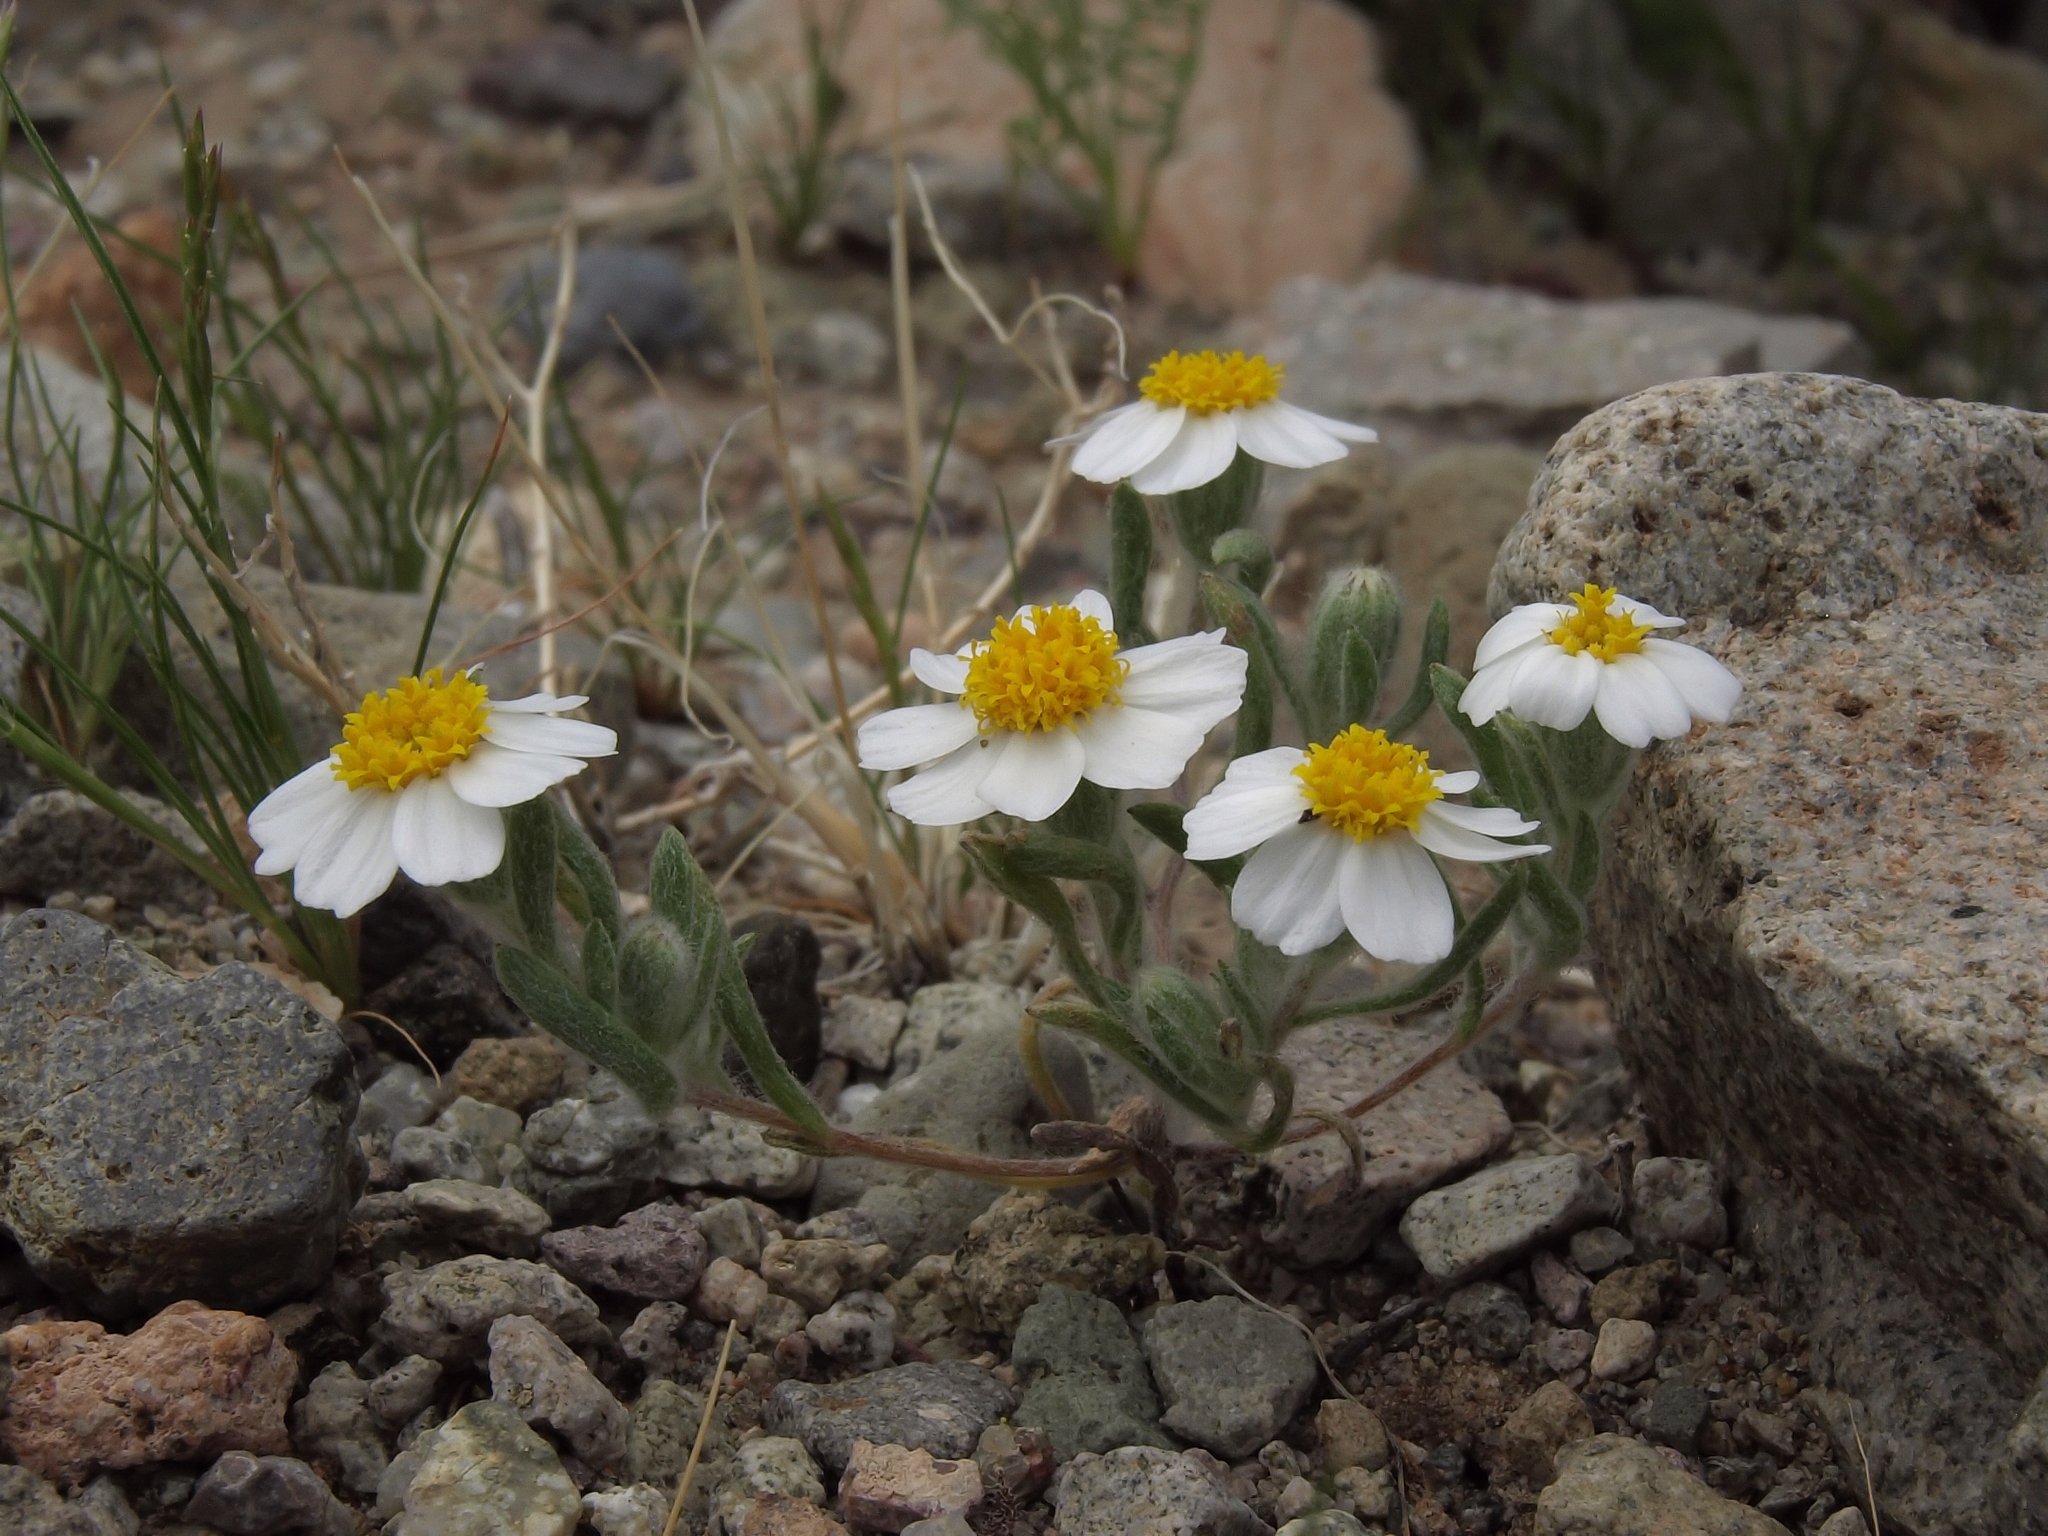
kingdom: Plantae
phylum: Tracheophyta
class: Magnoliopsida
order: Asterales
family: Asteraceae
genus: Eriophyllum
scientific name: Eriophyllum lanosum
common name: White easter-bonnets
